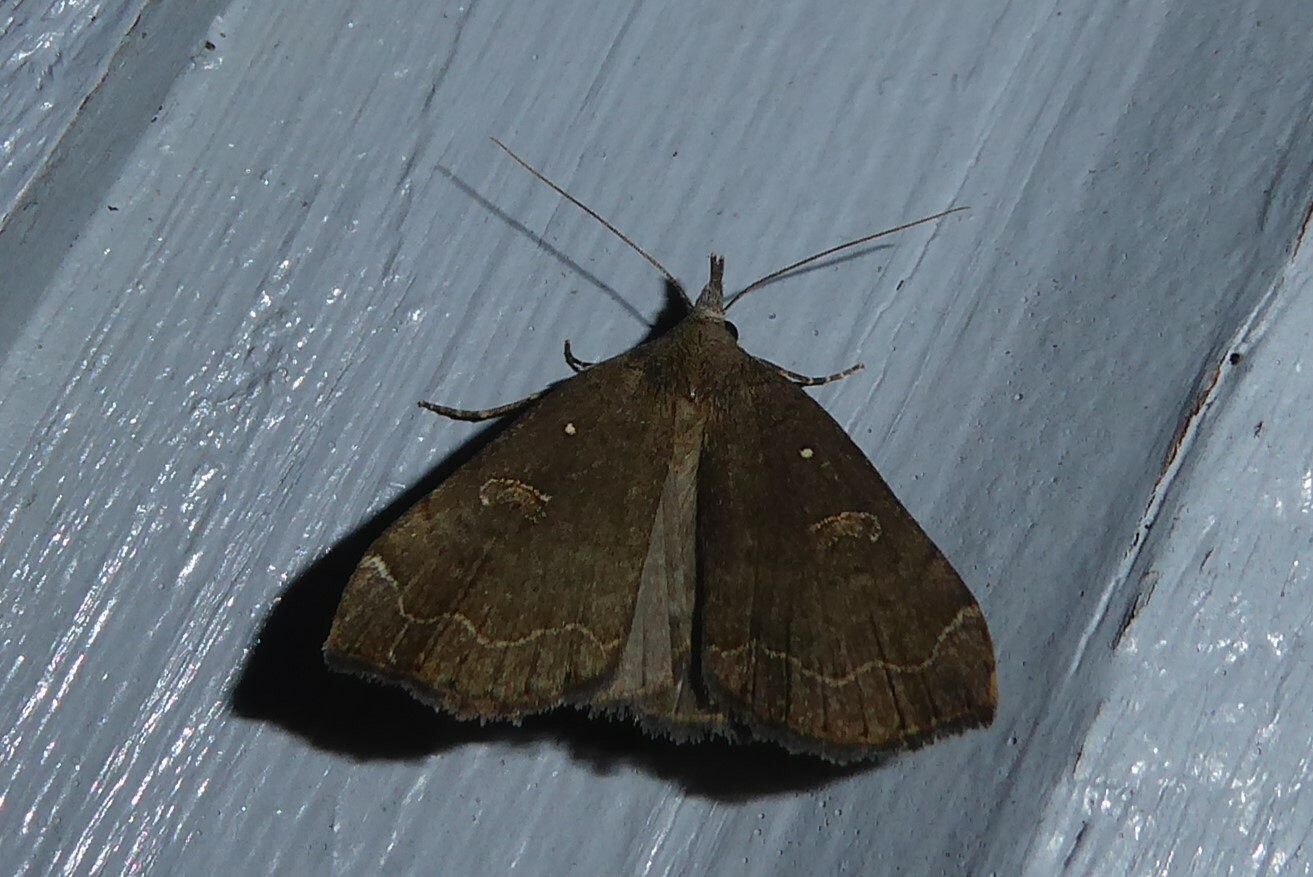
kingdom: Animalia
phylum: Arthropoda
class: Insecta
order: Lepidoptera
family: Erebidae
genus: Rhapsa
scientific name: Rhapsa scotosialis
